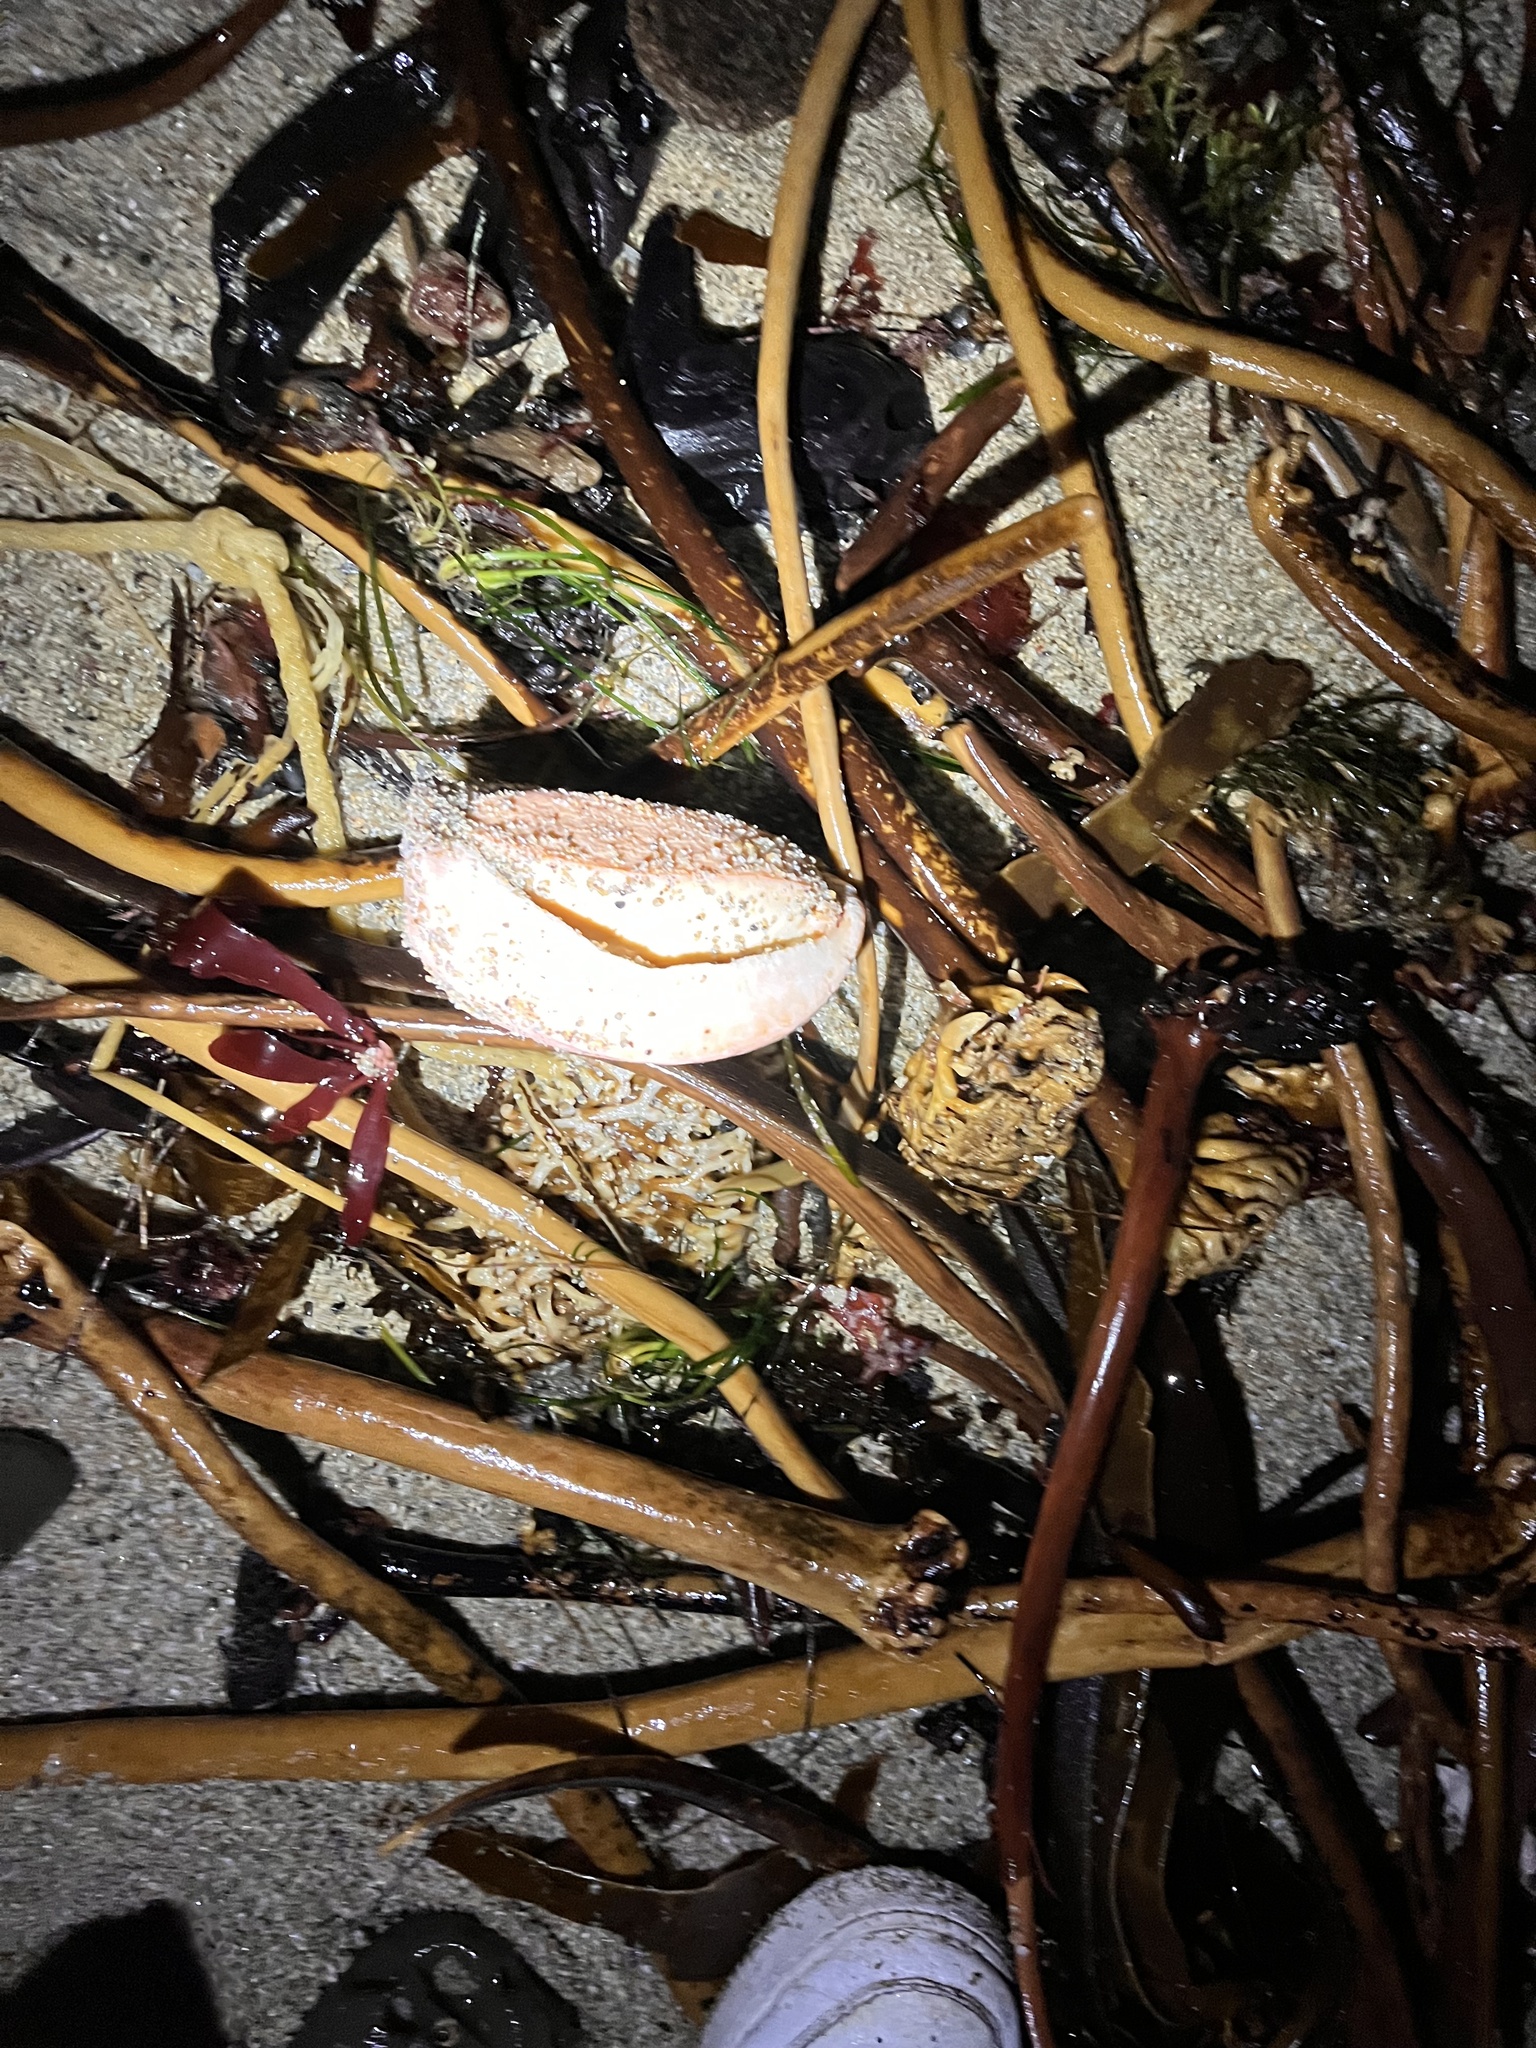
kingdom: Animalia
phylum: Mollusca
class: Polyplacophora
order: Chitonida
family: Acanthochitonidae
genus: Cryptochiton
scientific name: Cryptochiton stelleri
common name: Giant pacific chiton
